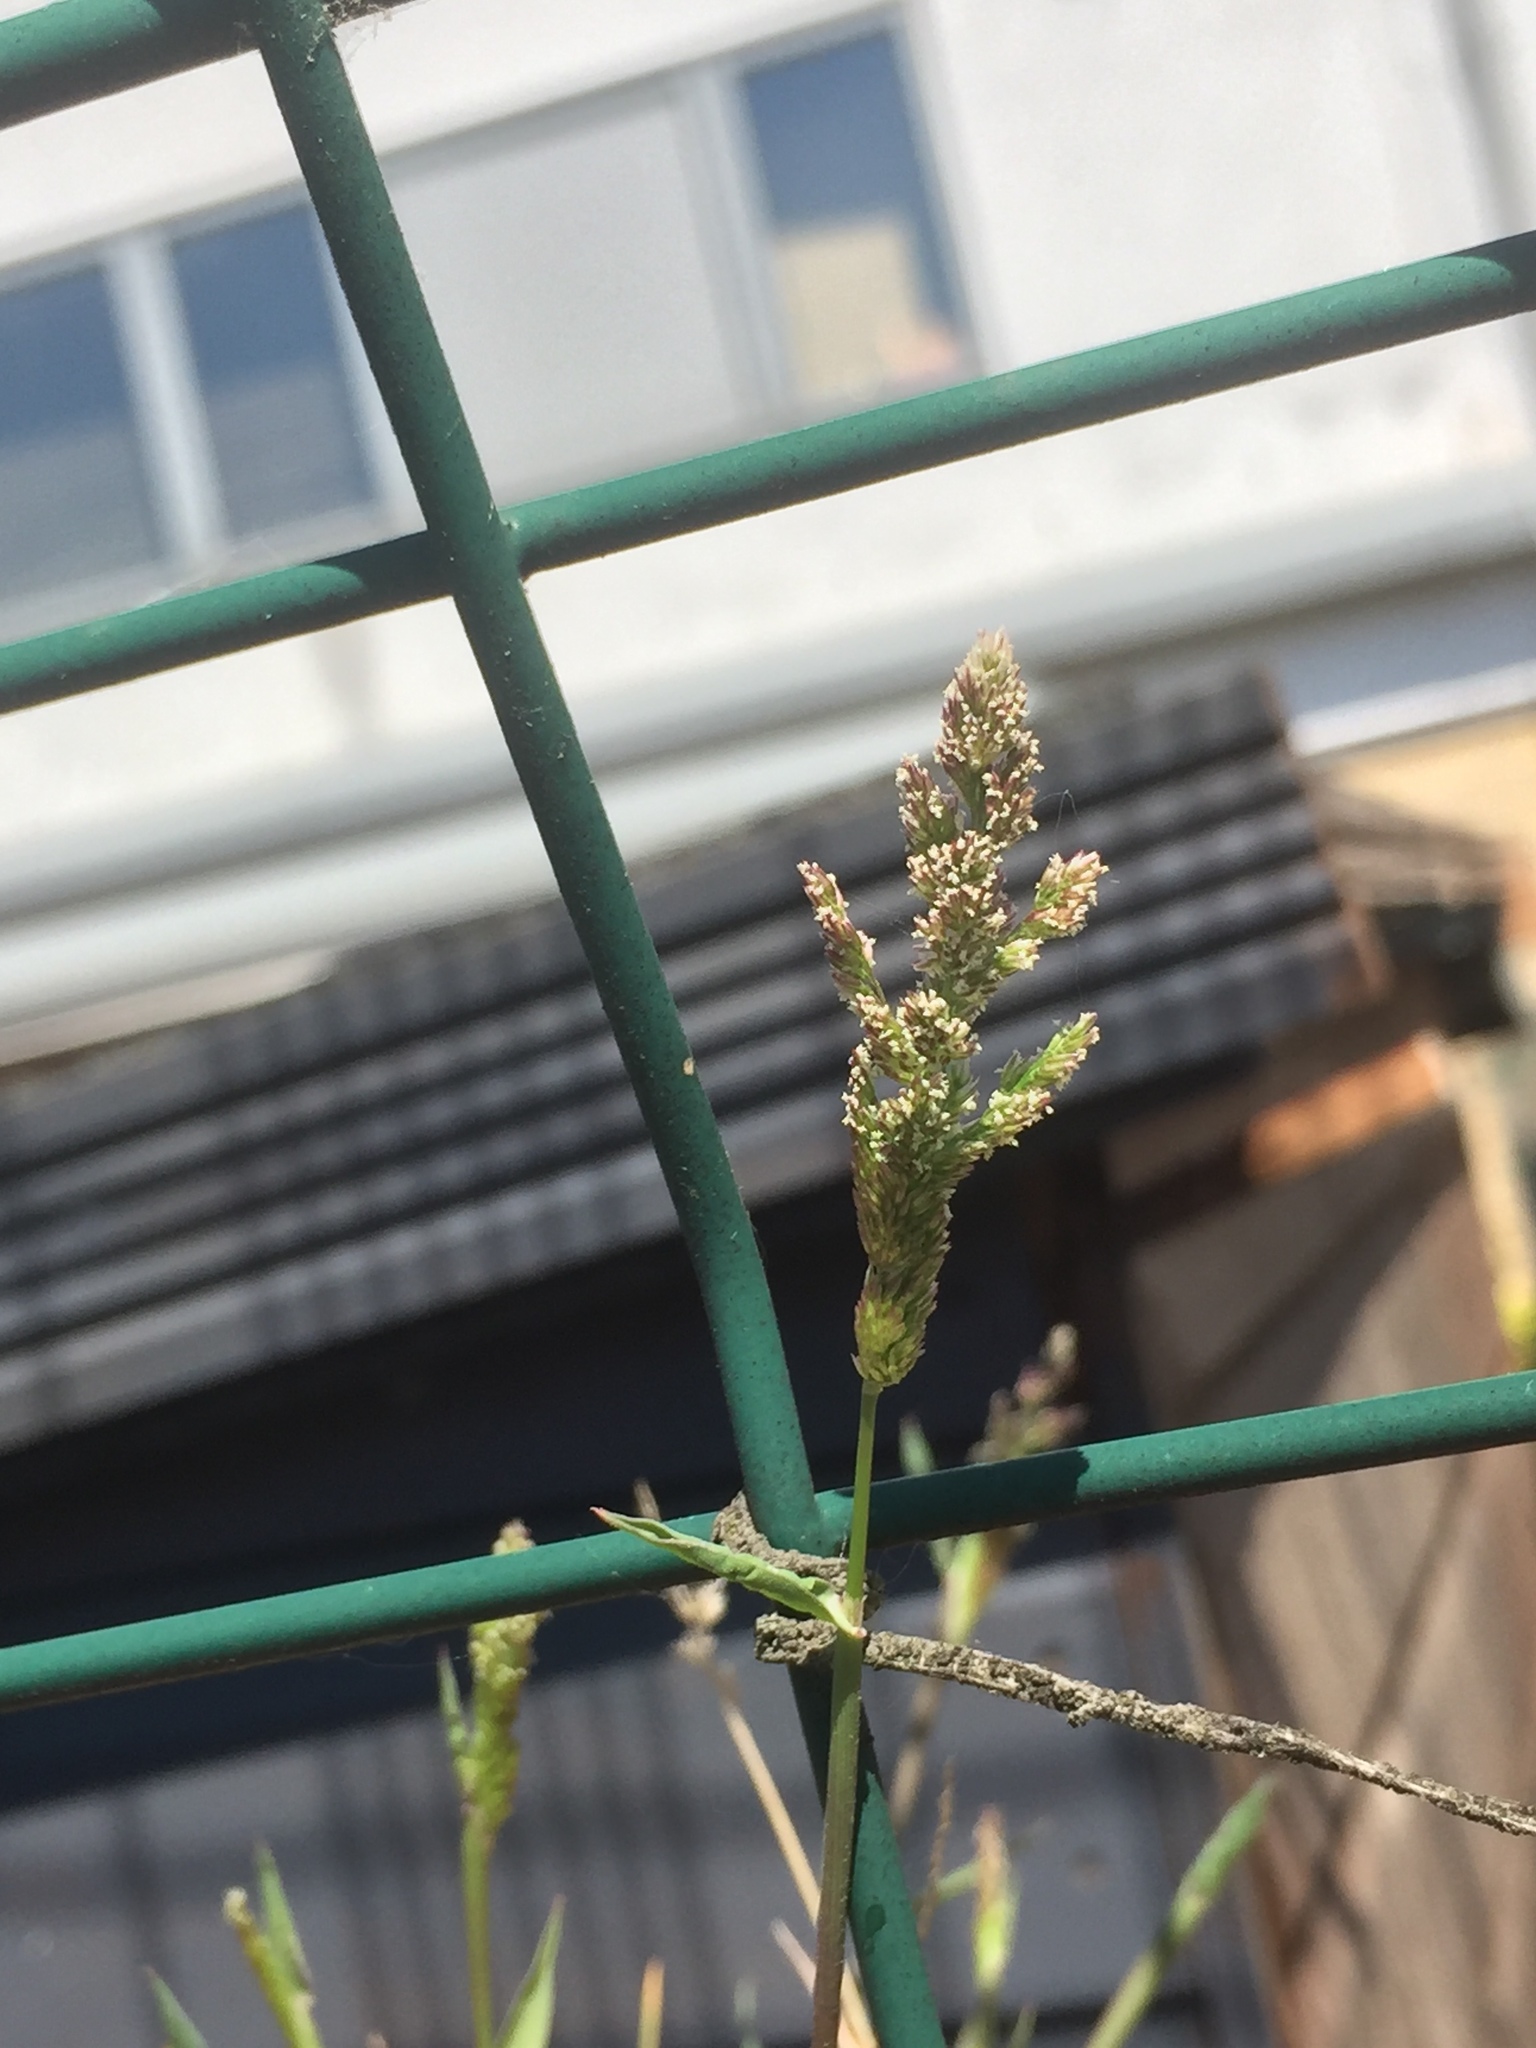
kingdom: Plantae
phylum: Tracheophyta
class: Liliopsida
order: Poales
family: Poaceae
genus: Polypogon
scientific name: Polypogon viridis
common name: Water bent
